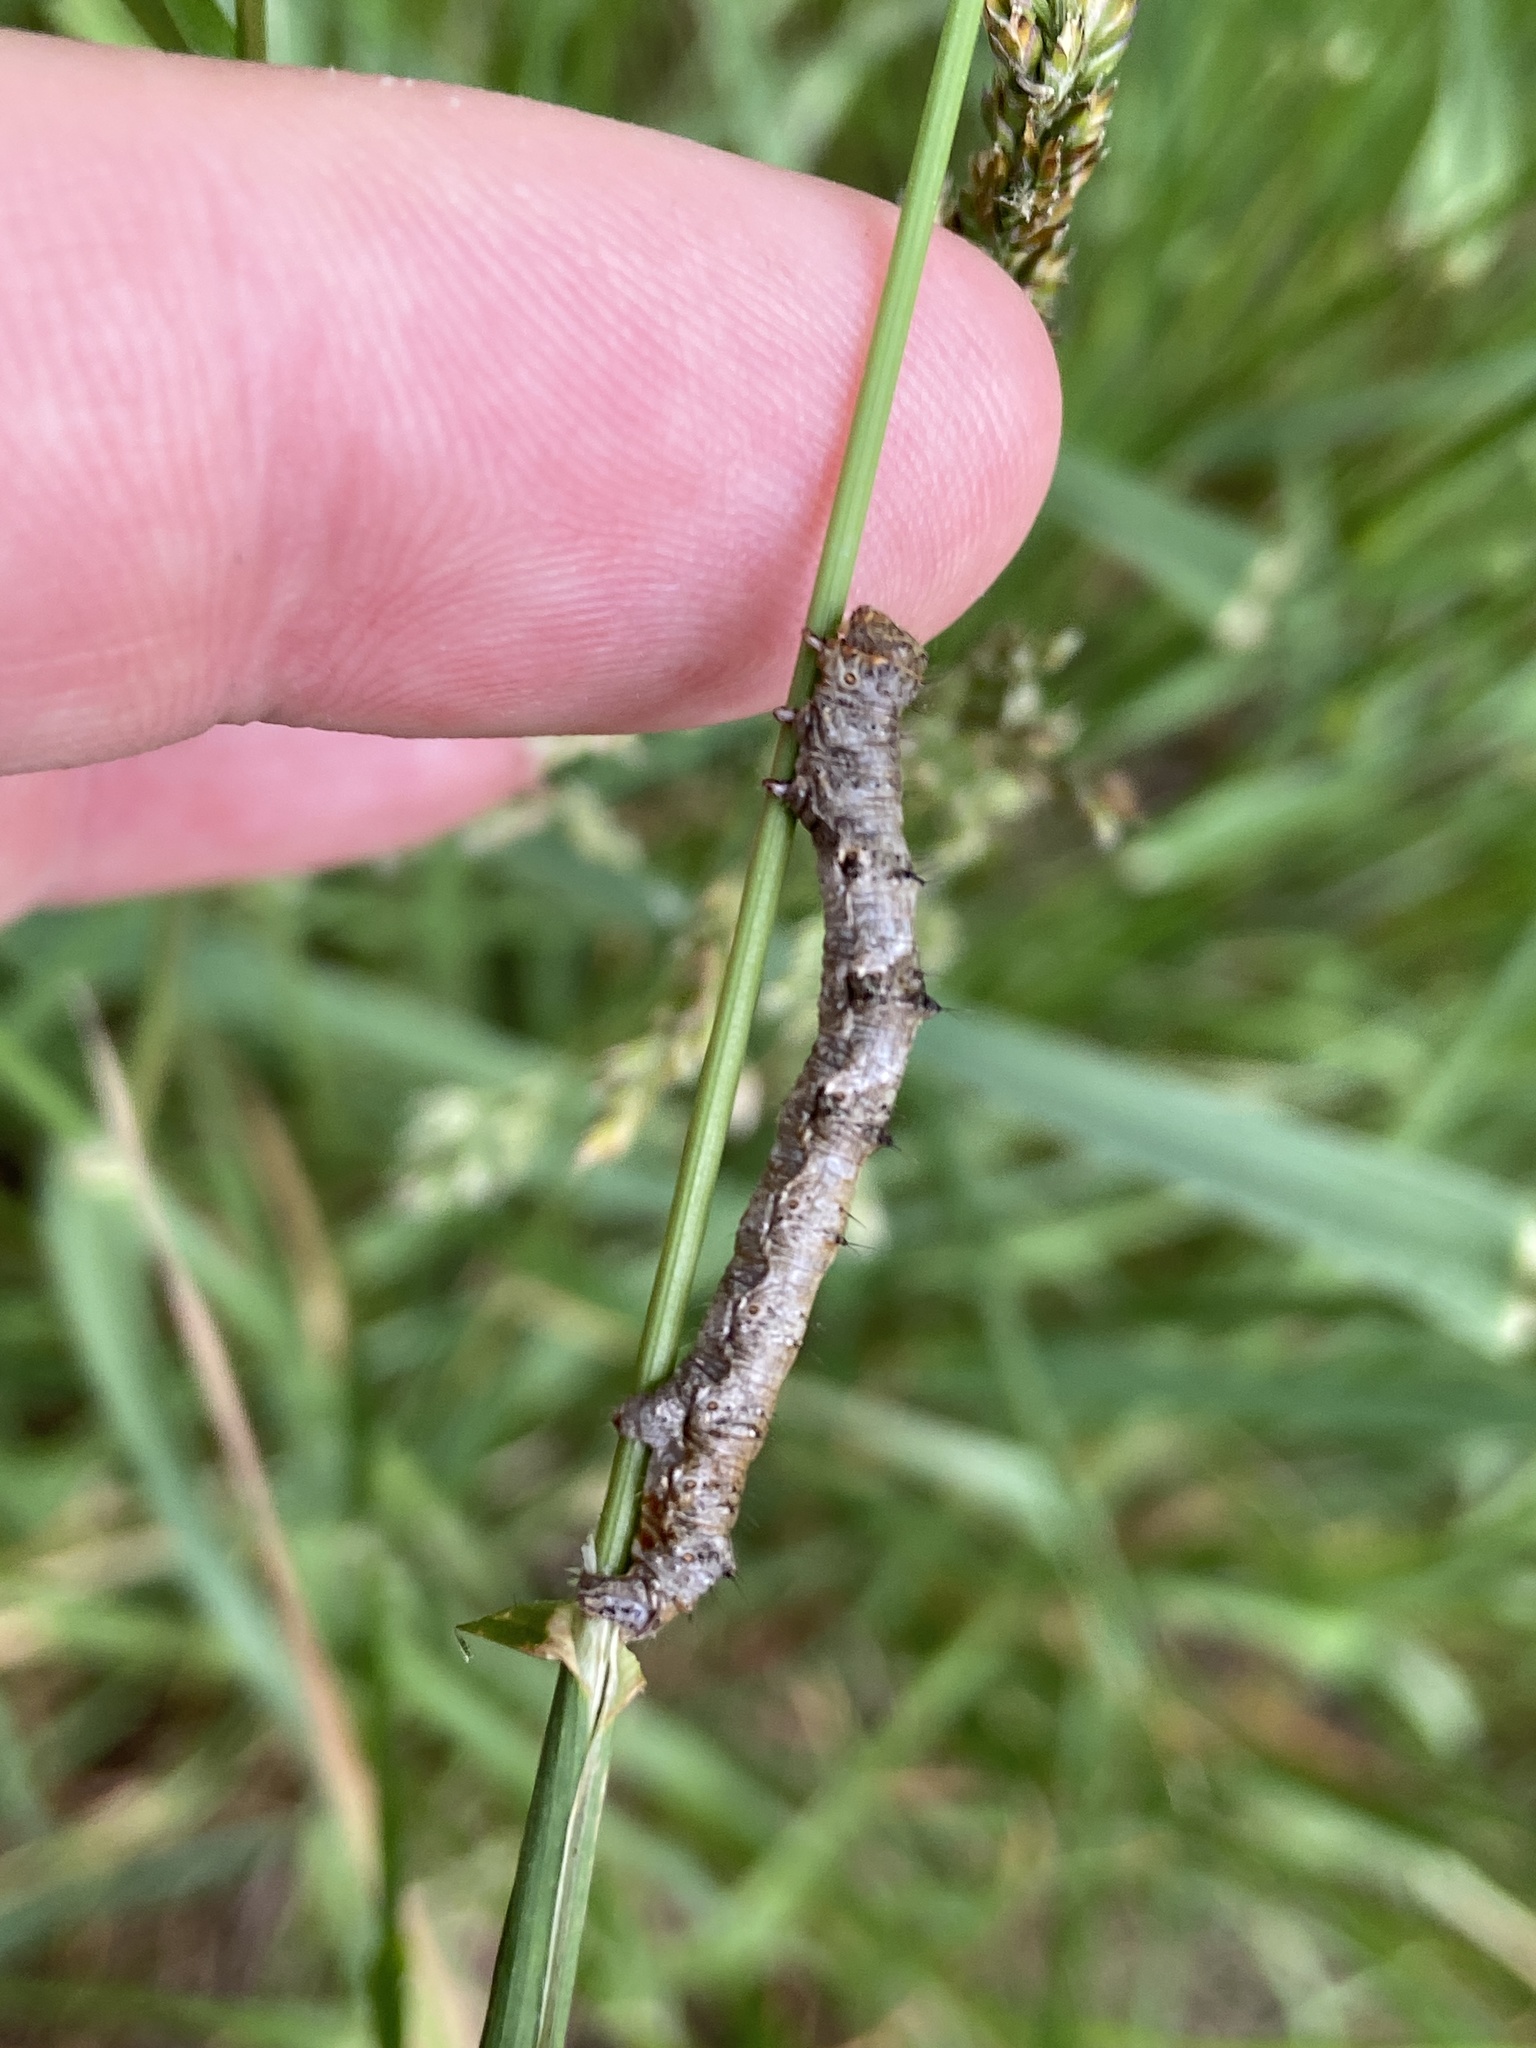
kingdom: Animalia
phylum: Arthropoda
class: Insecta
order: Lepidoptera
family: Geometridae
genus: Phigalia
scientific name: Phigalia pilosaria
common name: Pale brindled beauty
